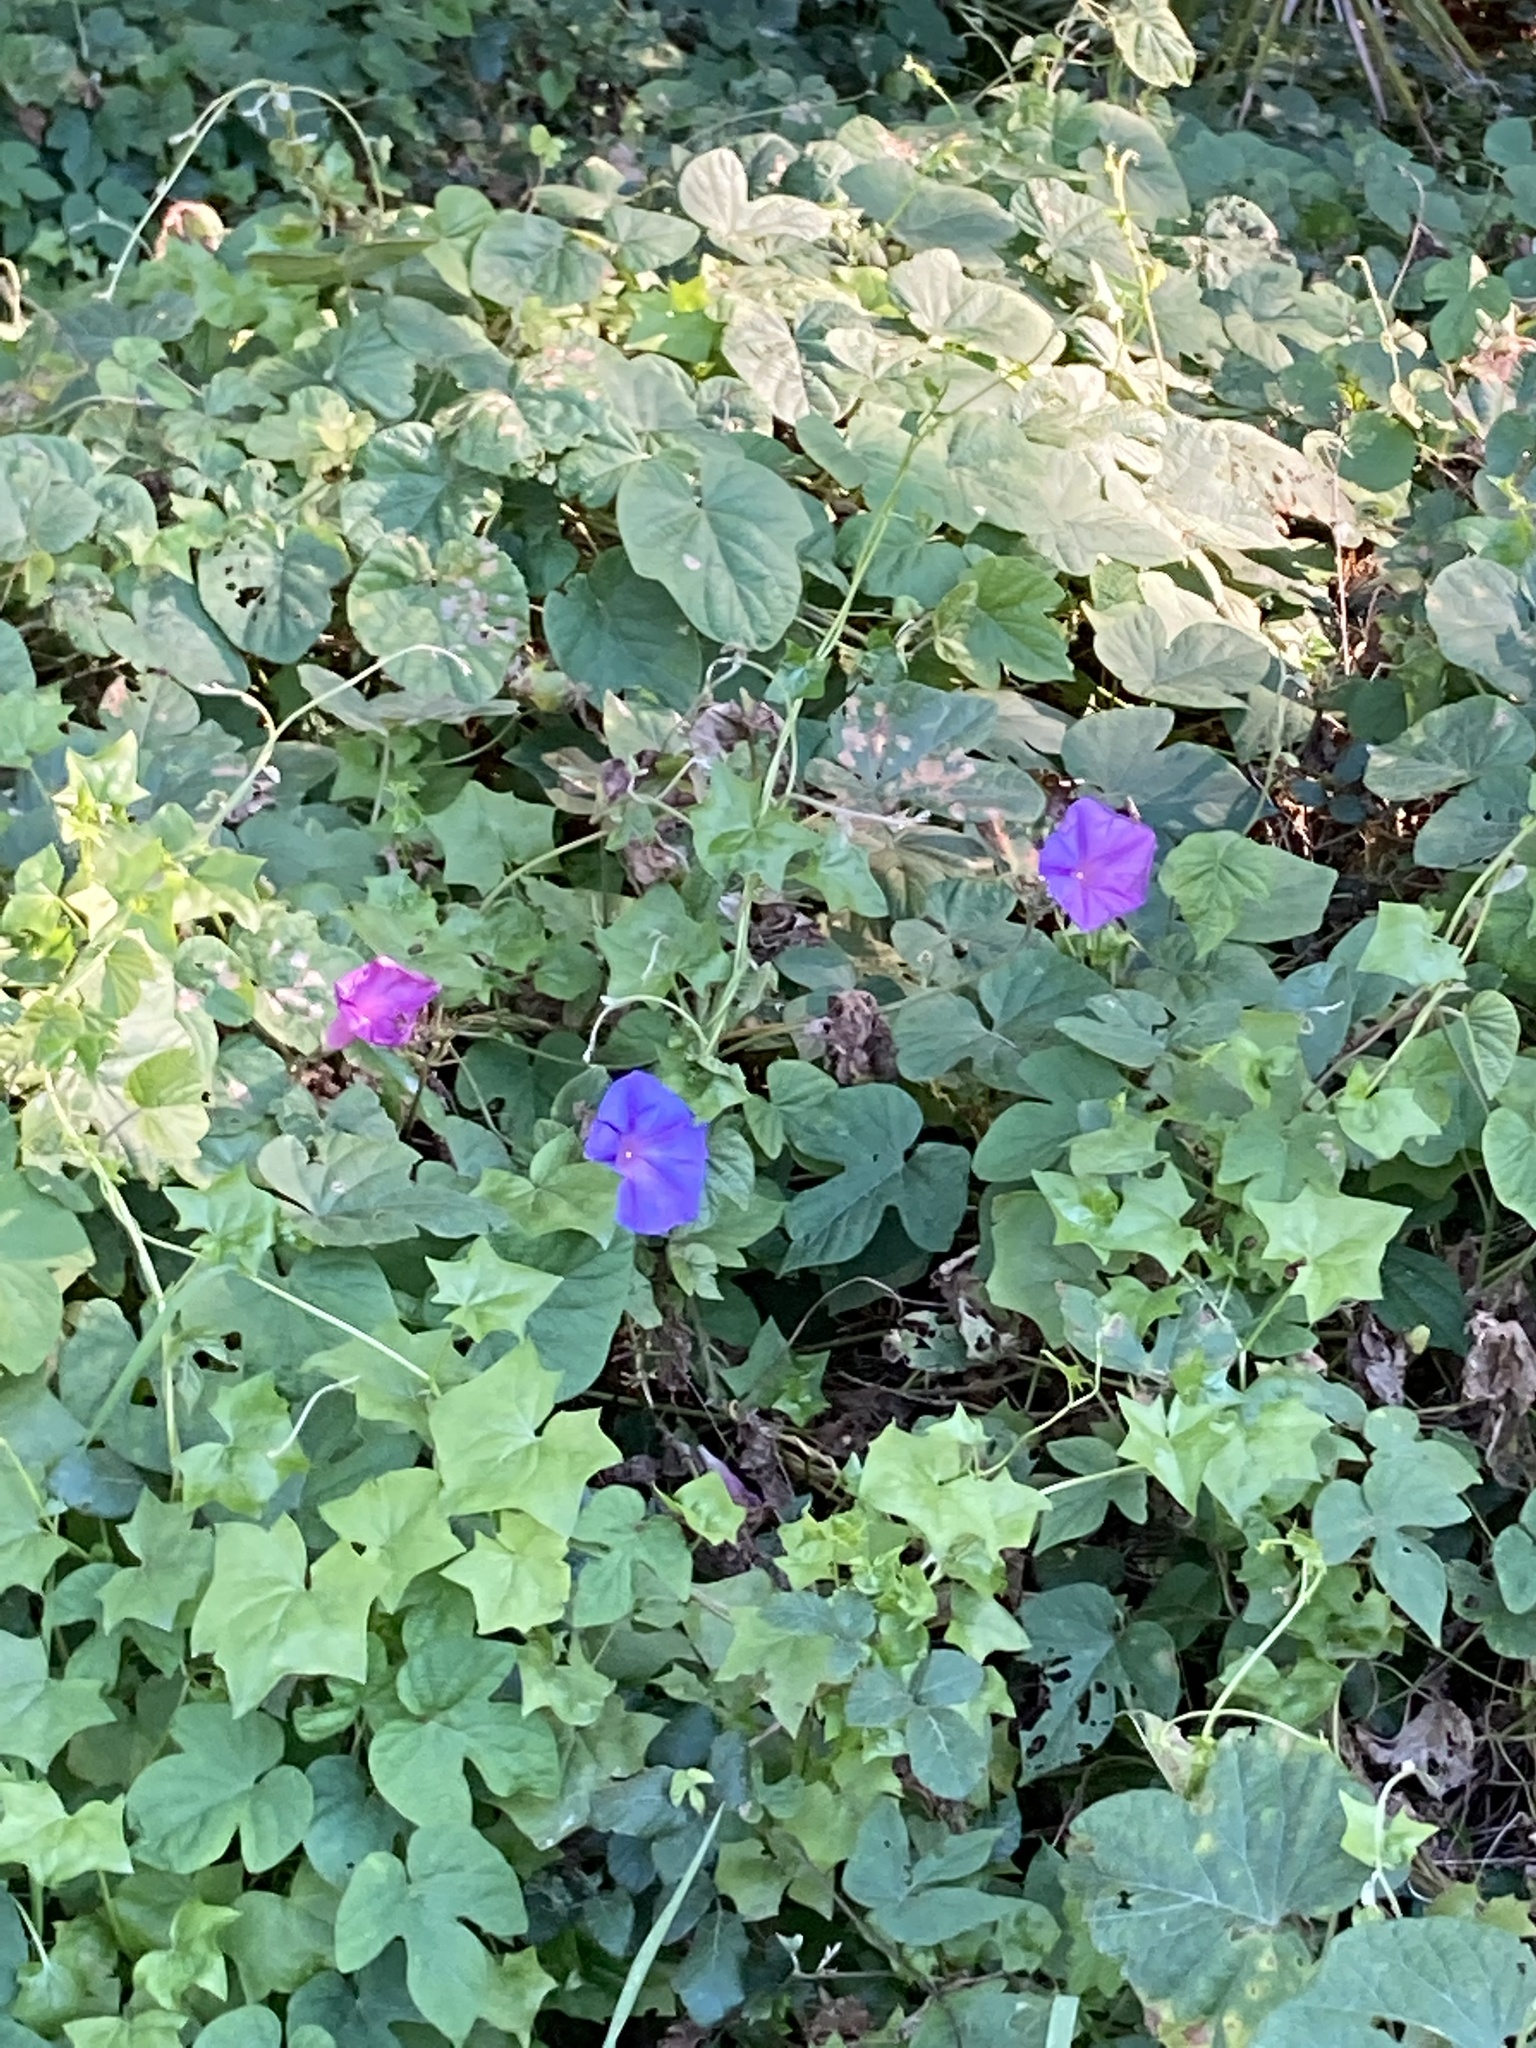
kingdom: Plantae
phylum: Tracheophyta
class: Magnoliopsida
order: Solanales
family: Convolvulaceae
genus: Ipomoea
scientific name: Ipomoea indica
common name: Blue dawnflower
